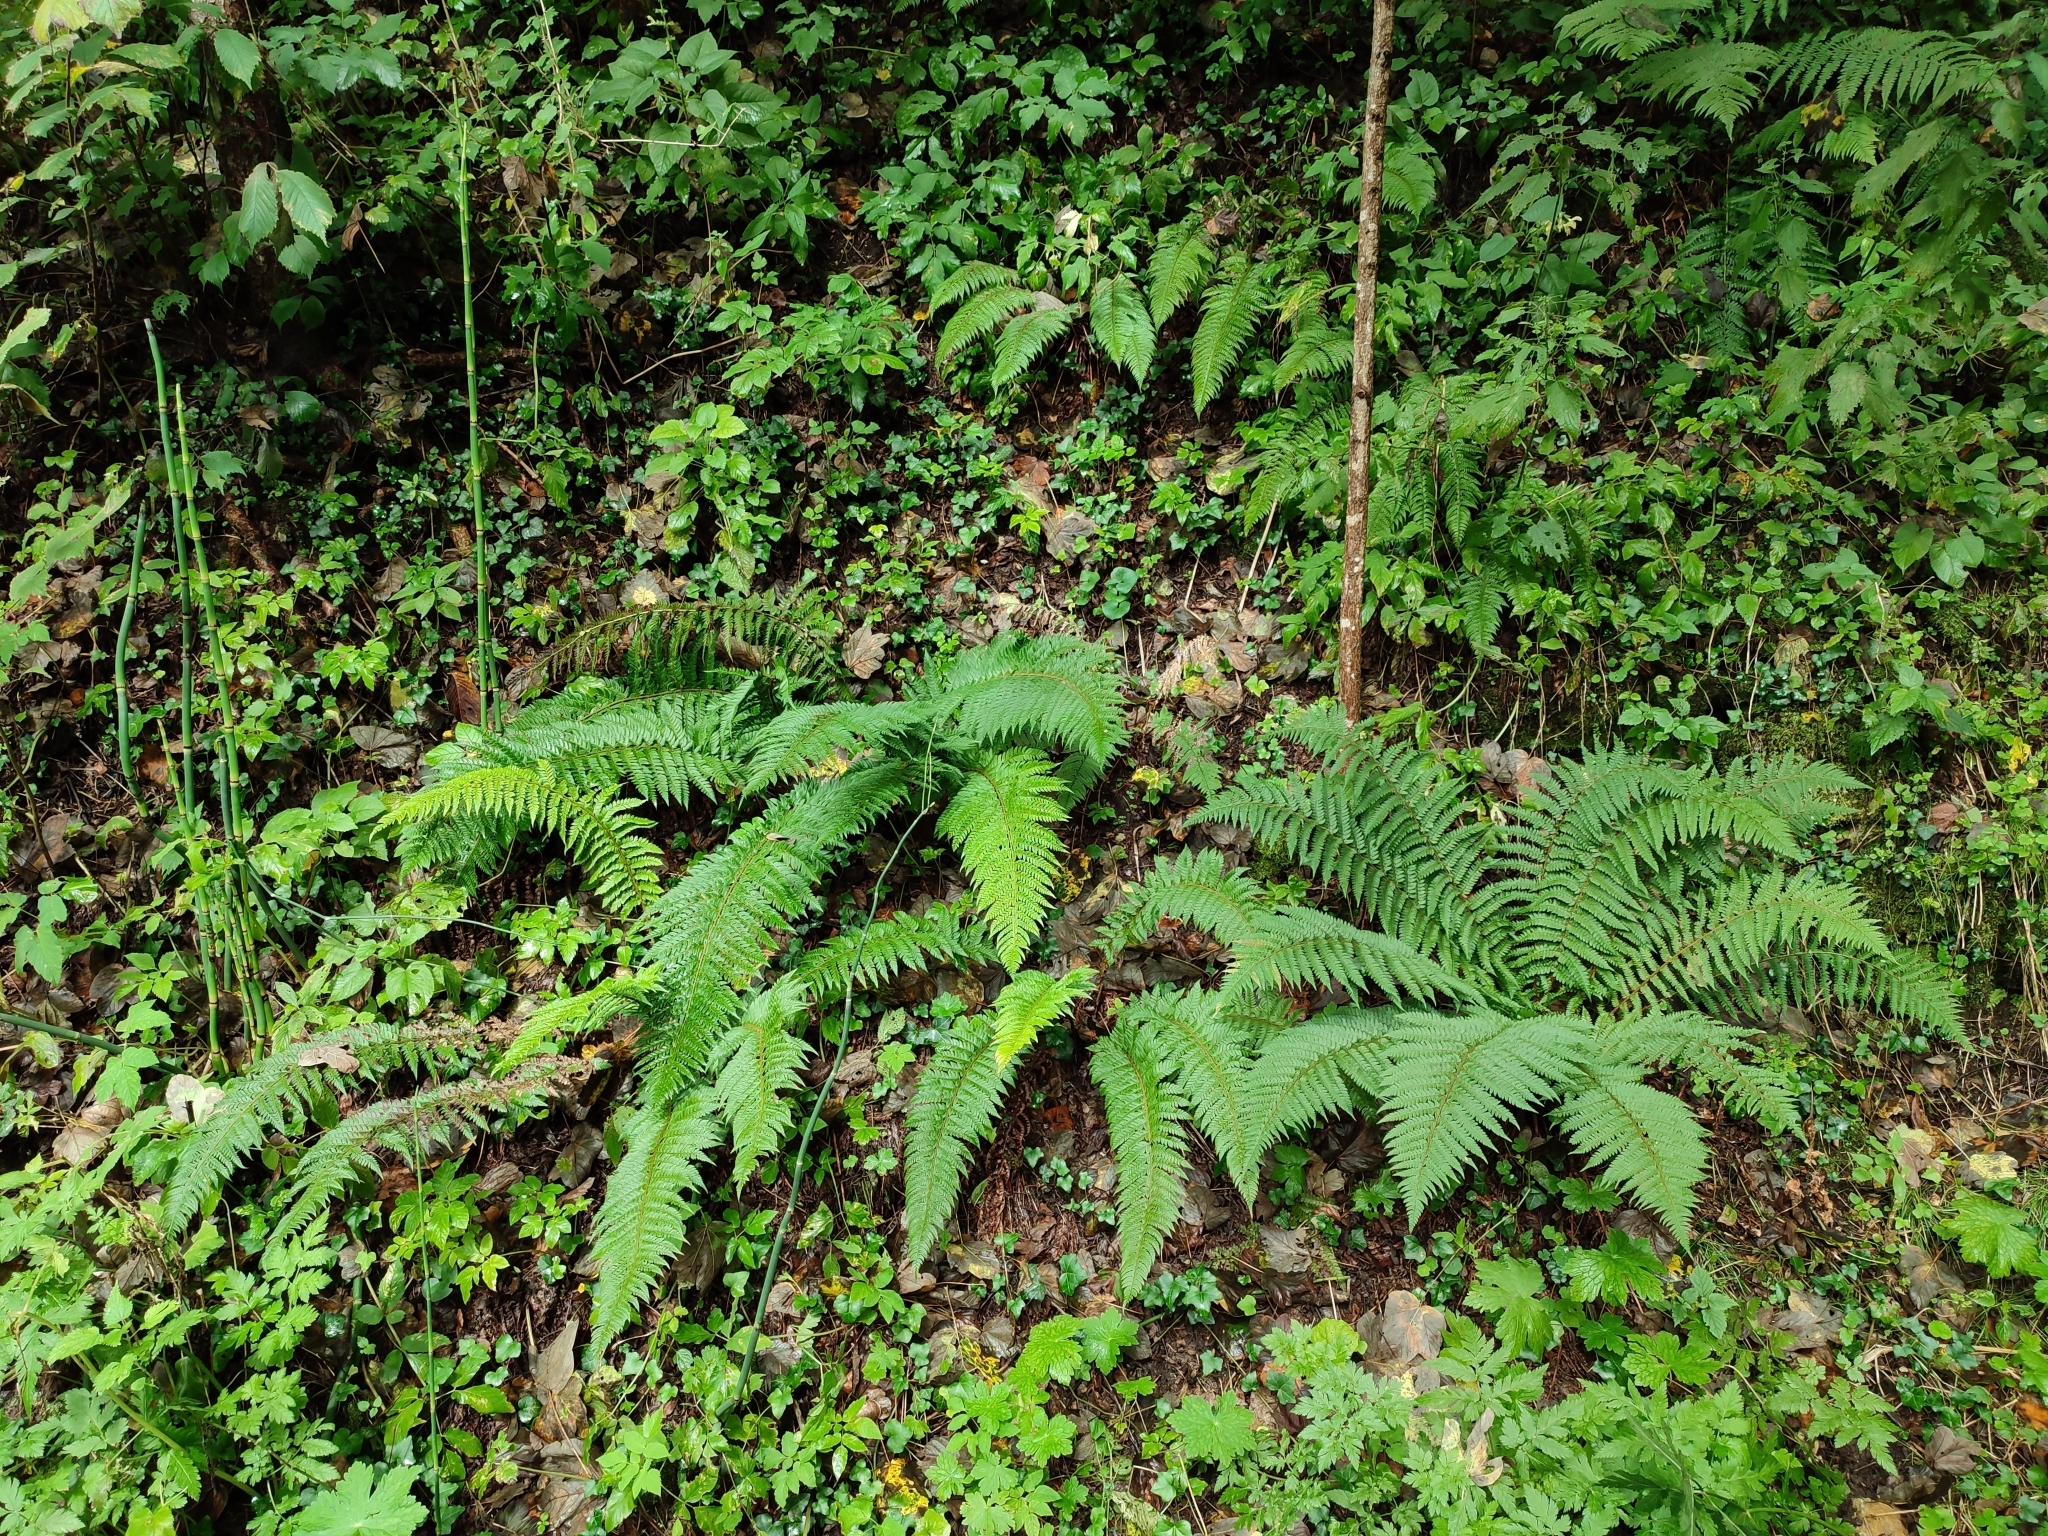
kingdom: Plantae
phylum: Tracheophyta
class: Polypodiopsida
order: Polypodiales
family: Dryopteridaceae
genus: Polystichum
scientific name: Polystichum aculeatum
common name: Hard shield-fern
